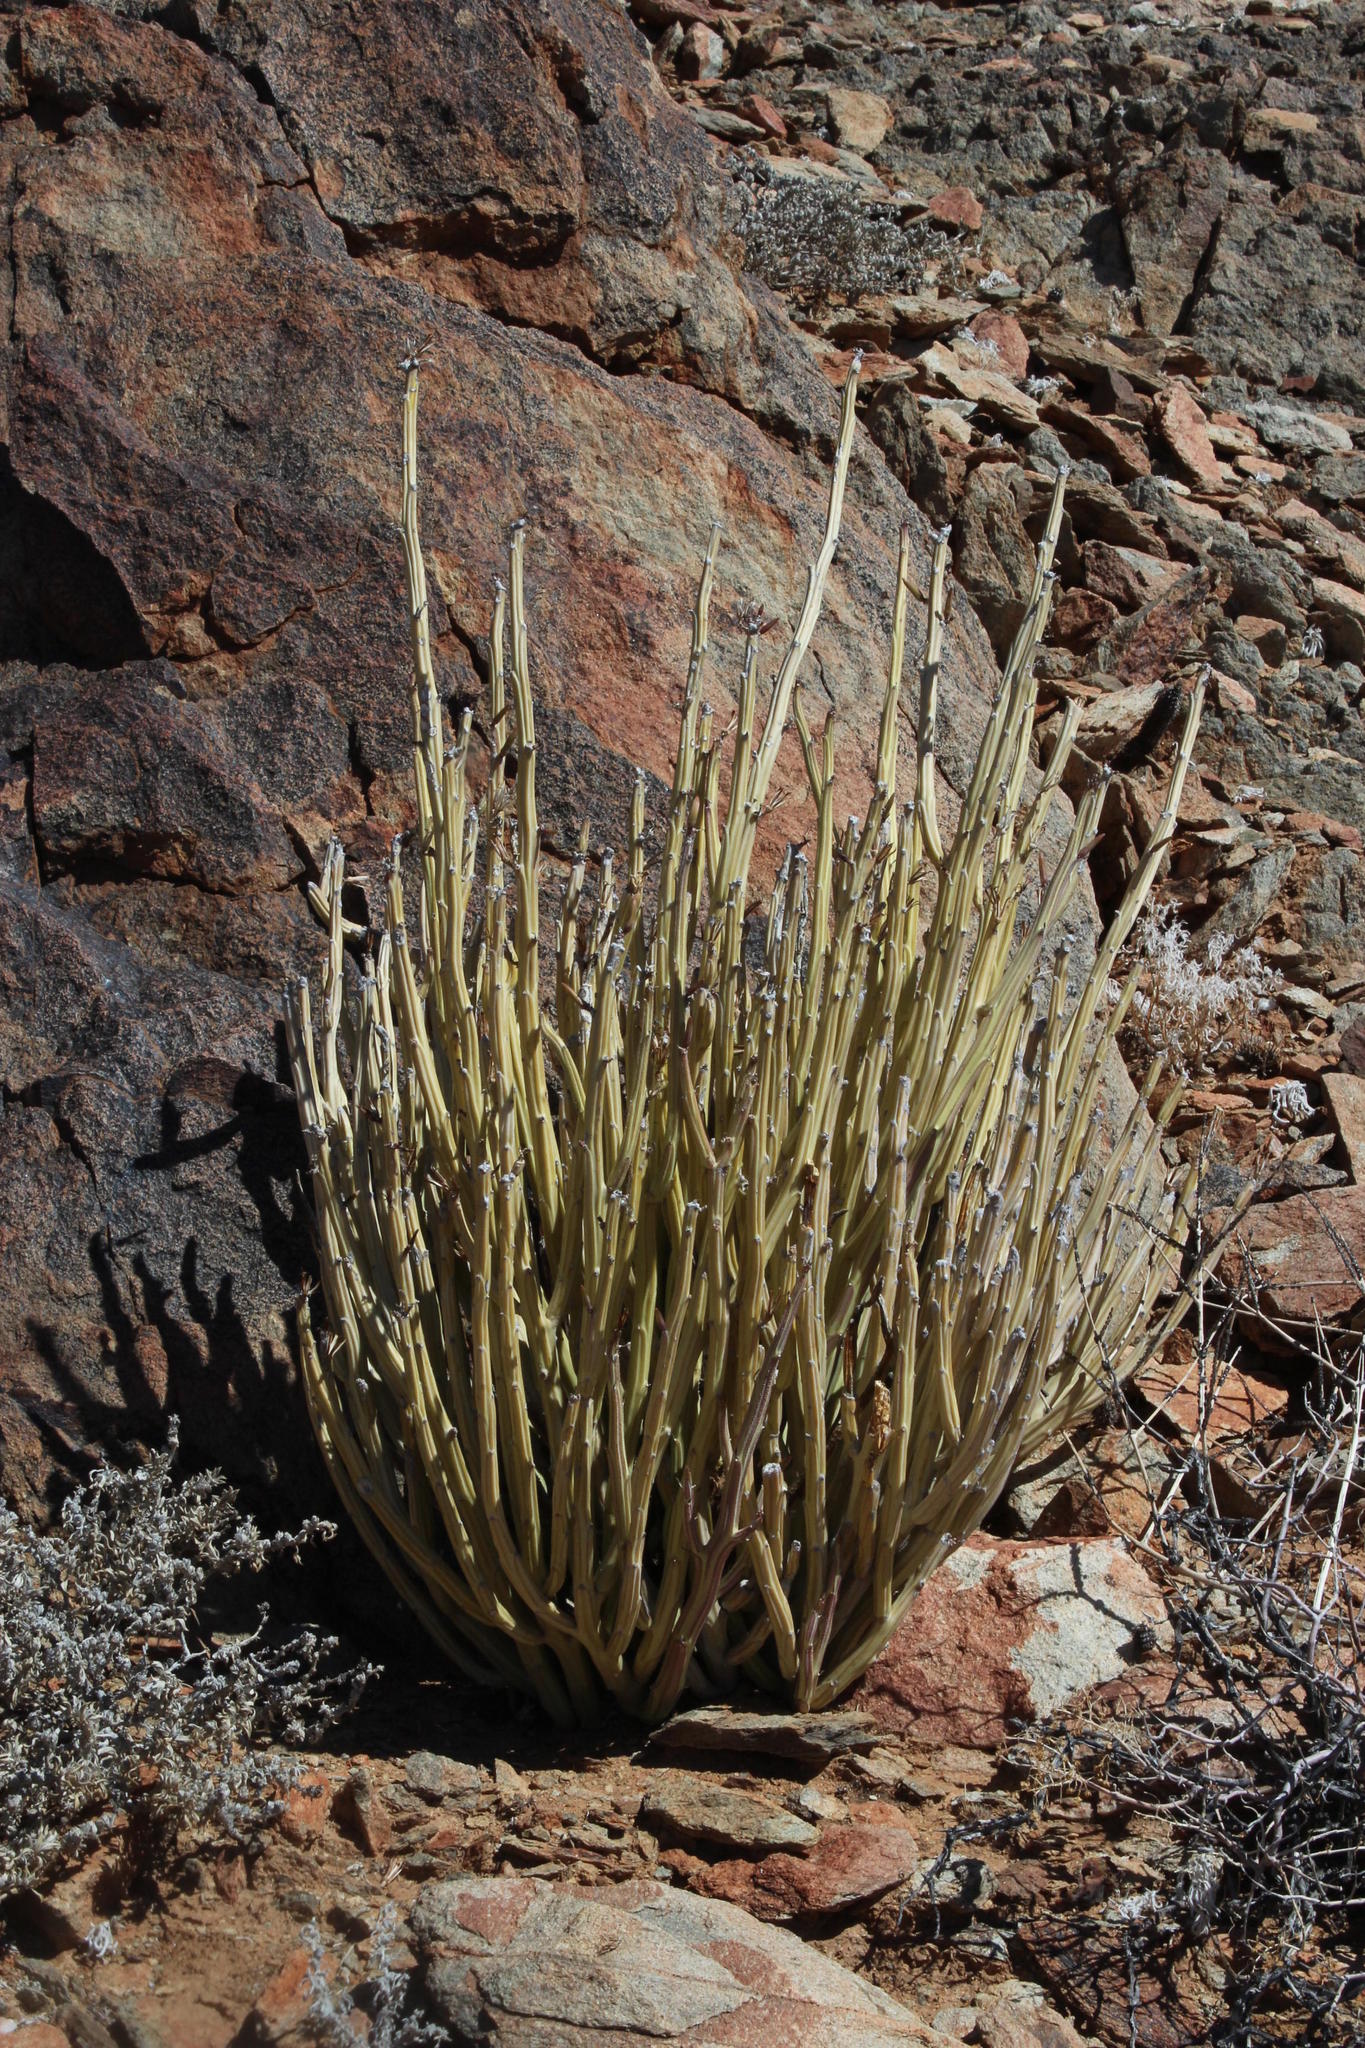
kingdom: Plantae
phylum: Tracheophyta
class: Magnoliopsida
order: Asterales
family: Asteraceae
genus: Curio
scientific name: Curio avasimontanus
